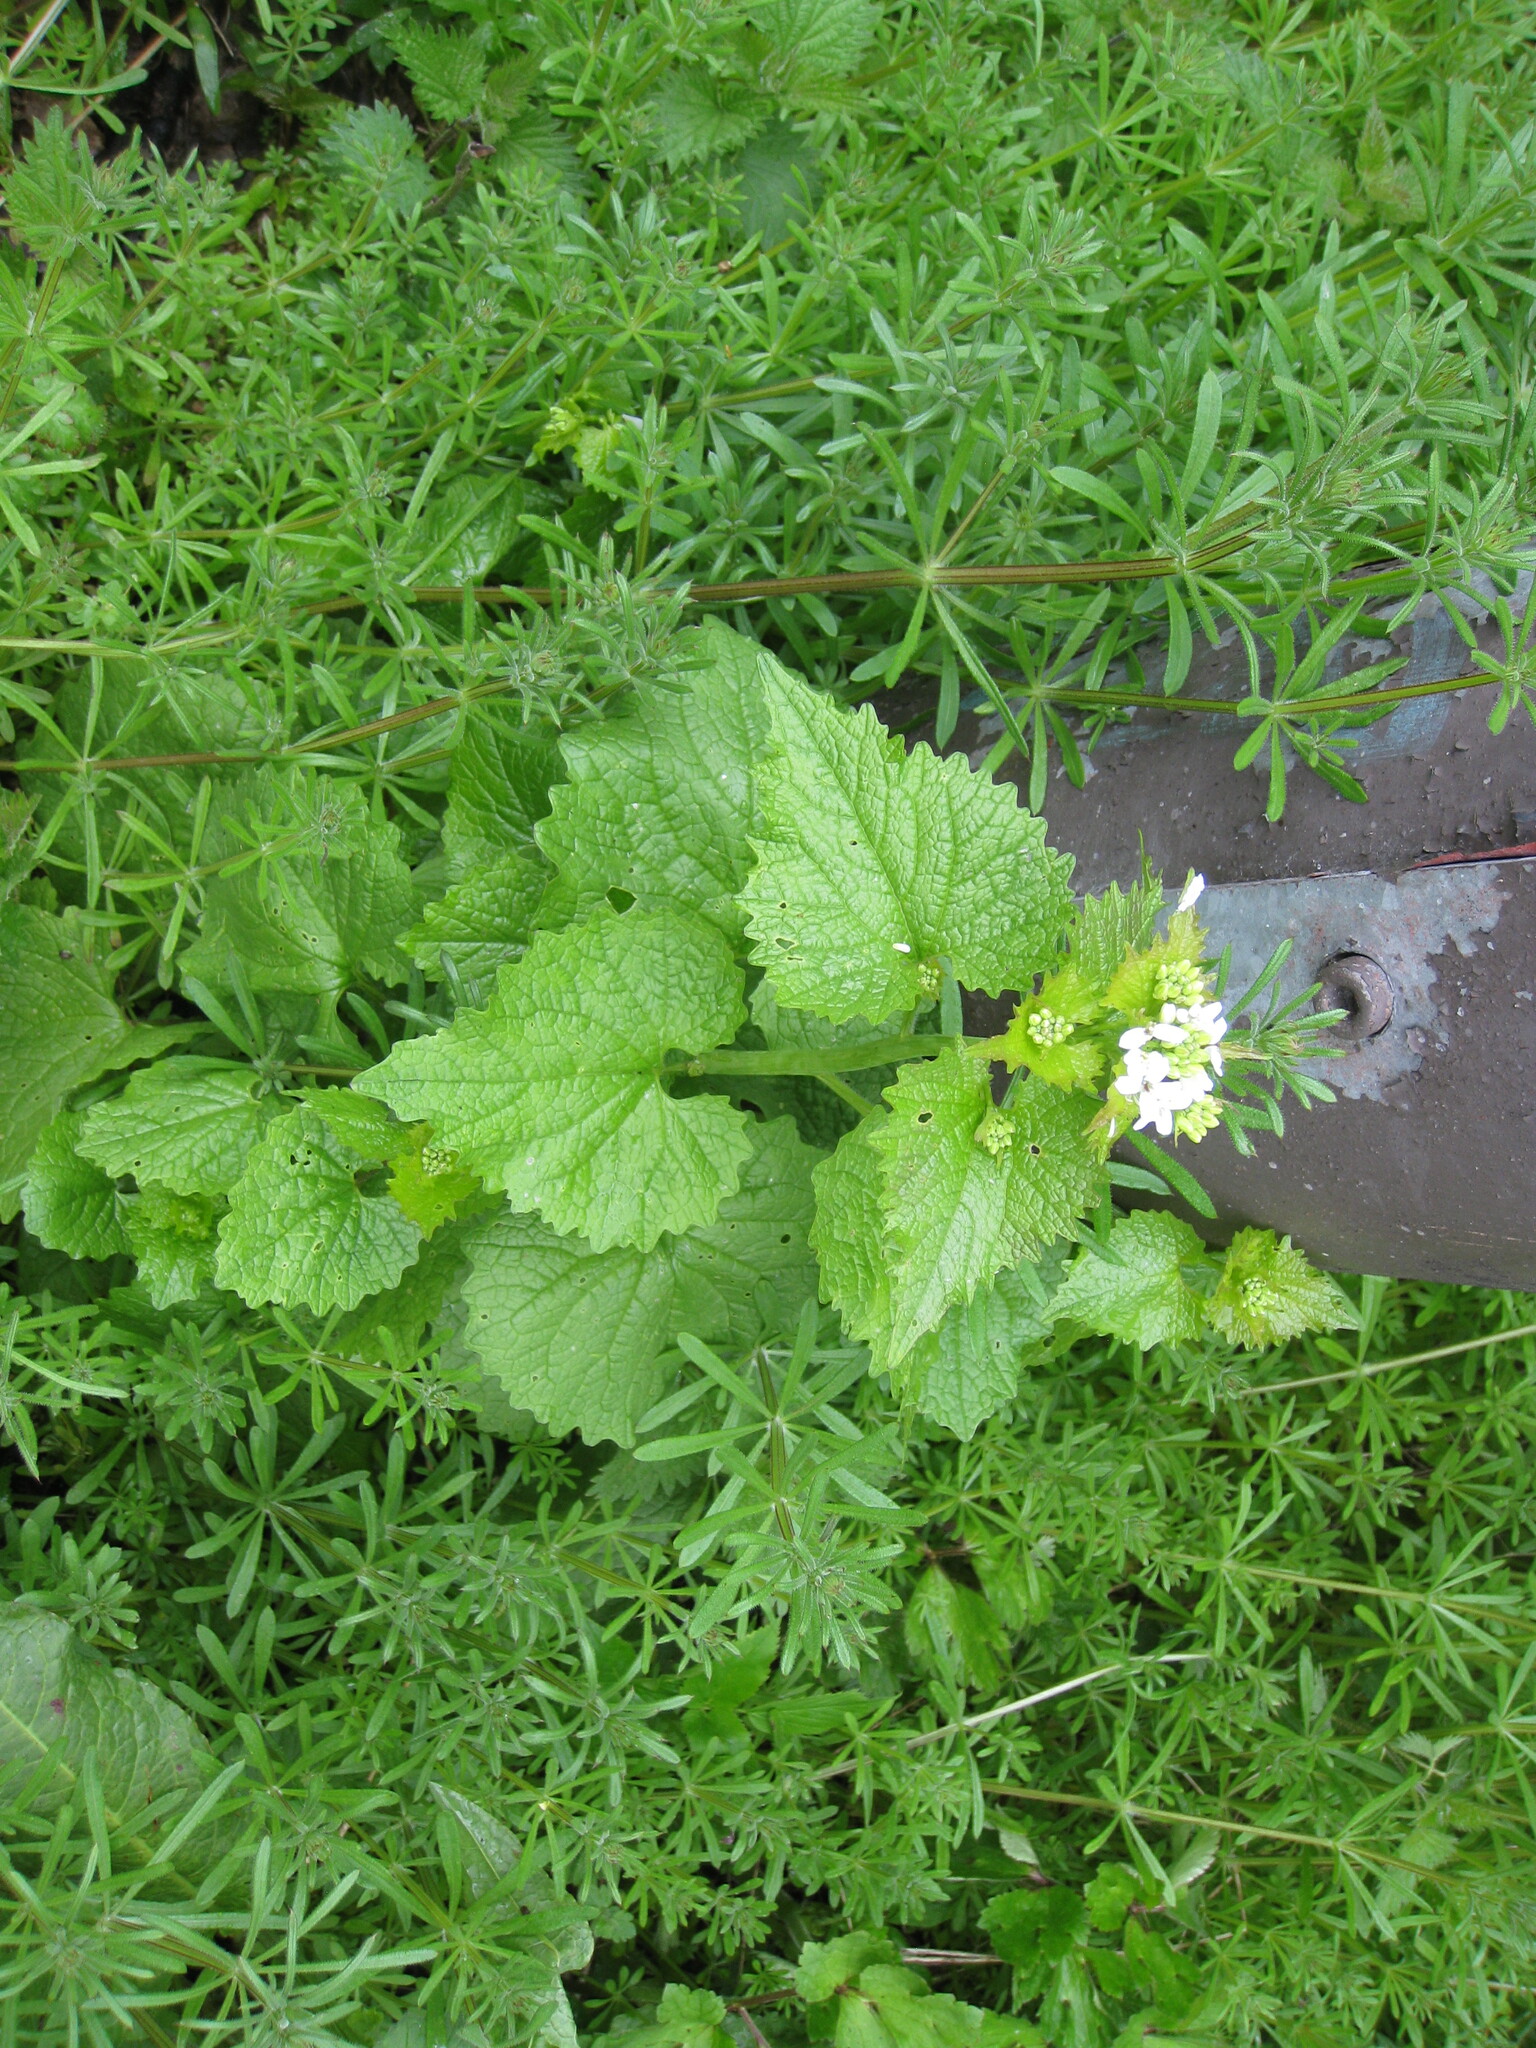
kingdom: Plantae
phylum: Tracheophyta
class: Magnoliopsida
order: Brassicales
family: Brassicaceae
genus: Alliaria
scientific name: Alliaria petiolata
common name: Garlic mustard
